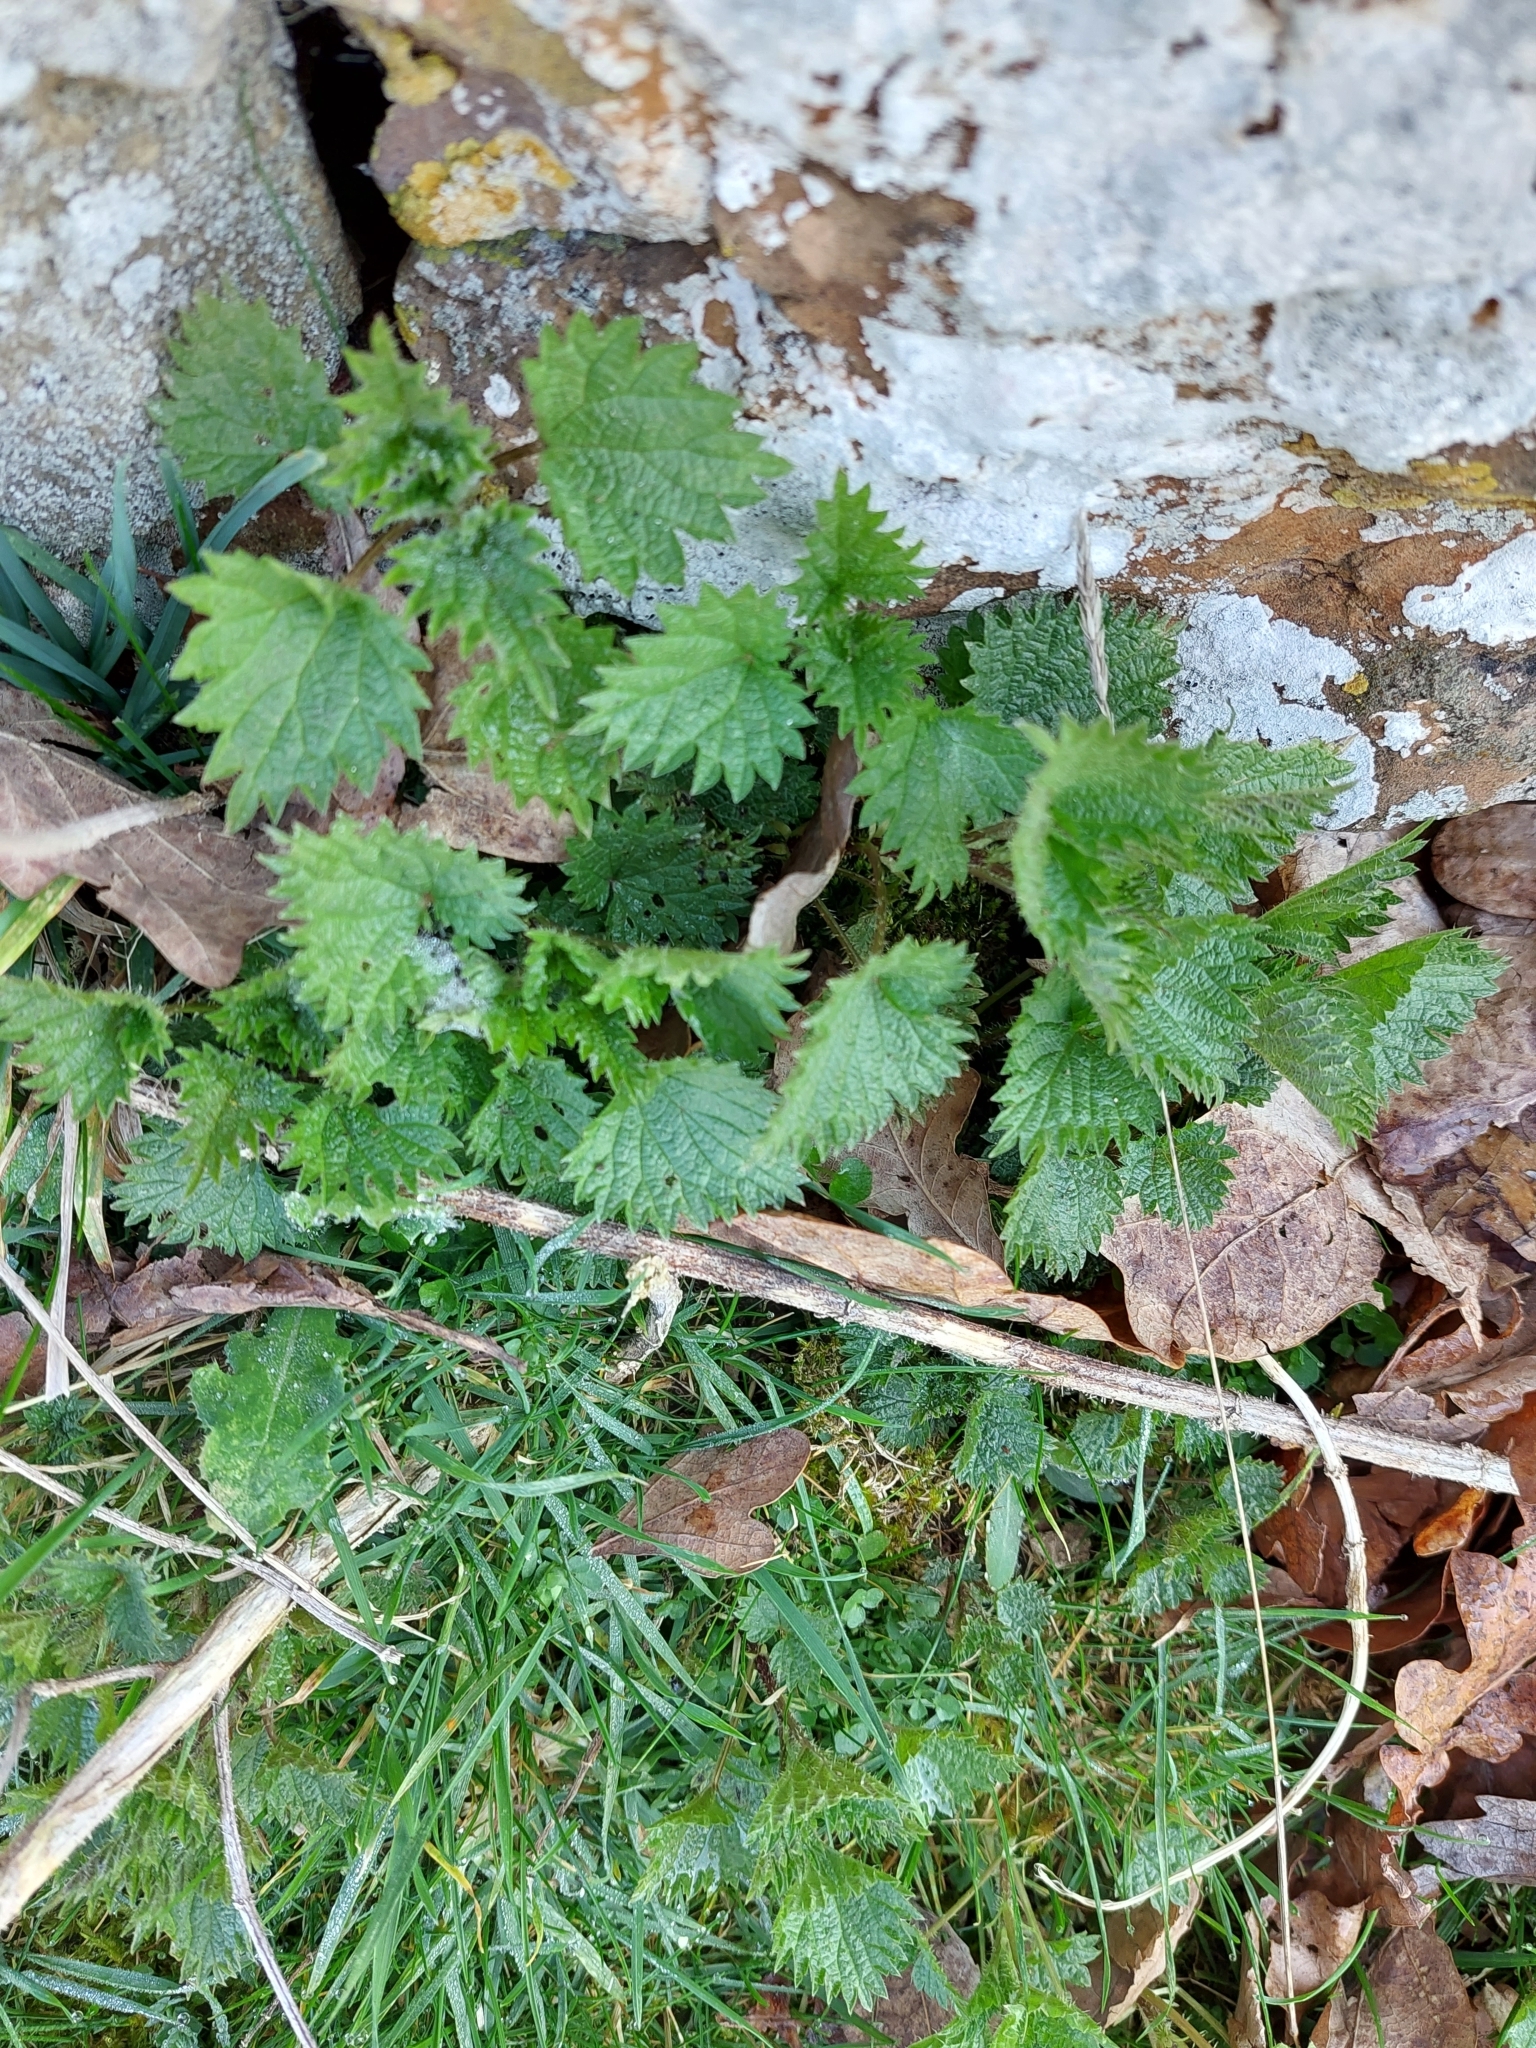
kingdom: Plantae
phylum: Tracheophyta
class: Magnoliopsida
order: Rosales
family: Urticaceae
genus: Urtica
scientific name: Urtica dioica
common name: Common nettle
